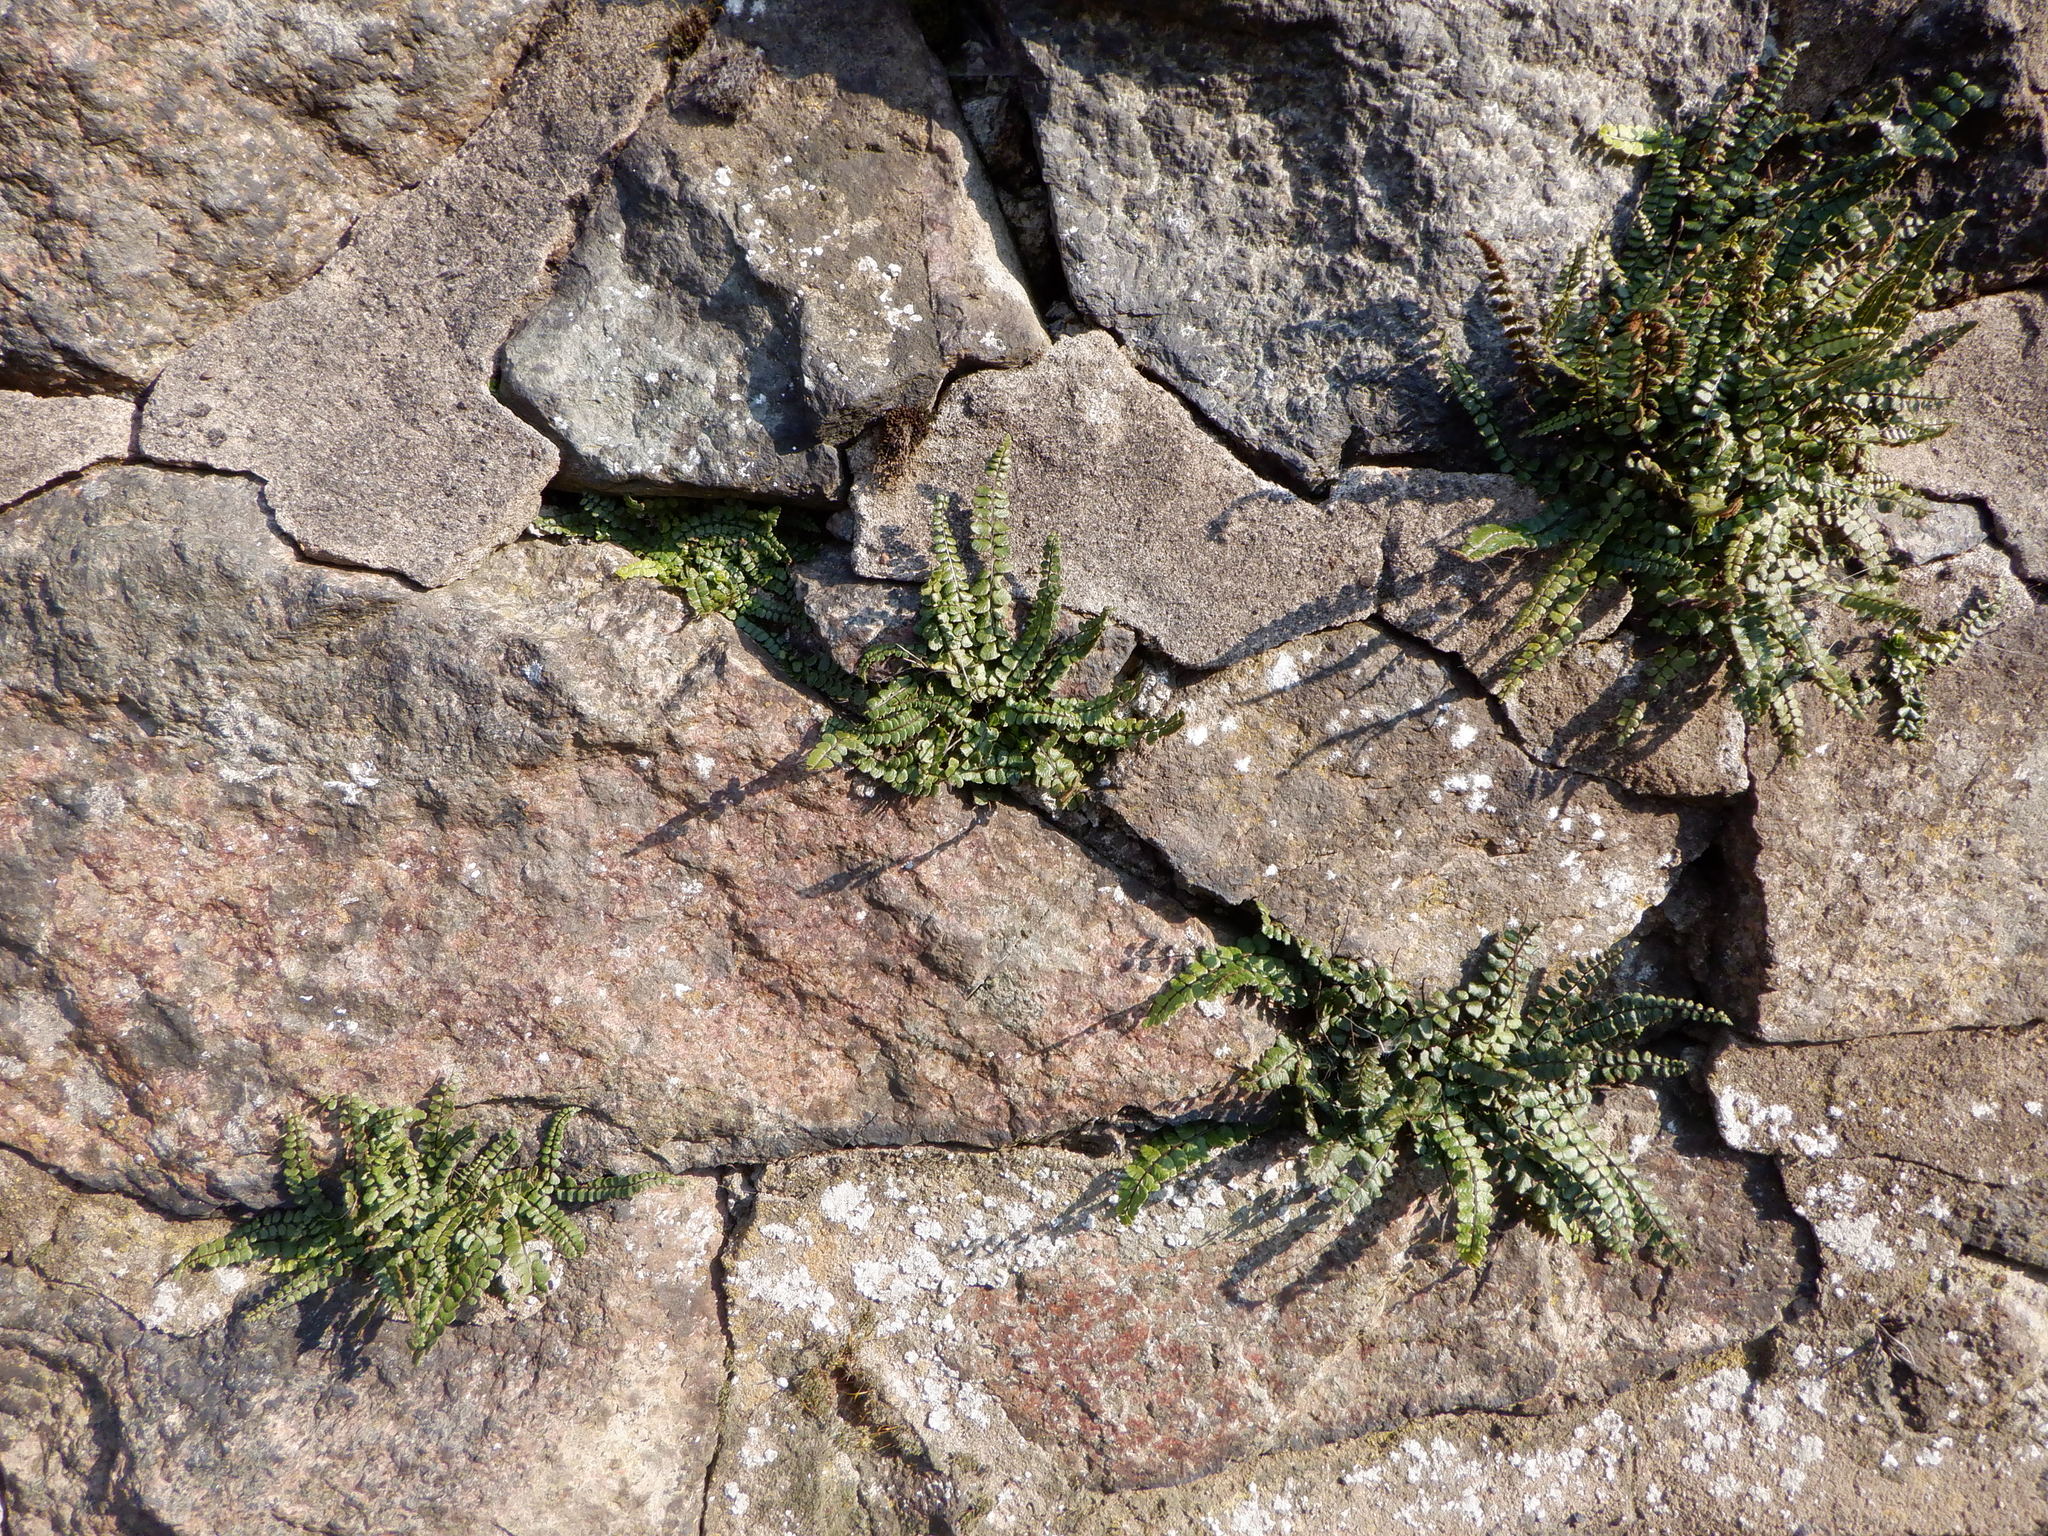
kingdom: Plantae
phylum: Tracheophyta
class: Polypodiopsida
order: Polypodiales
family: Aspleniaceae
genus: Asplenium
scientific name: Asplenium trichomanes
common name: Maidenhair spleenwort
